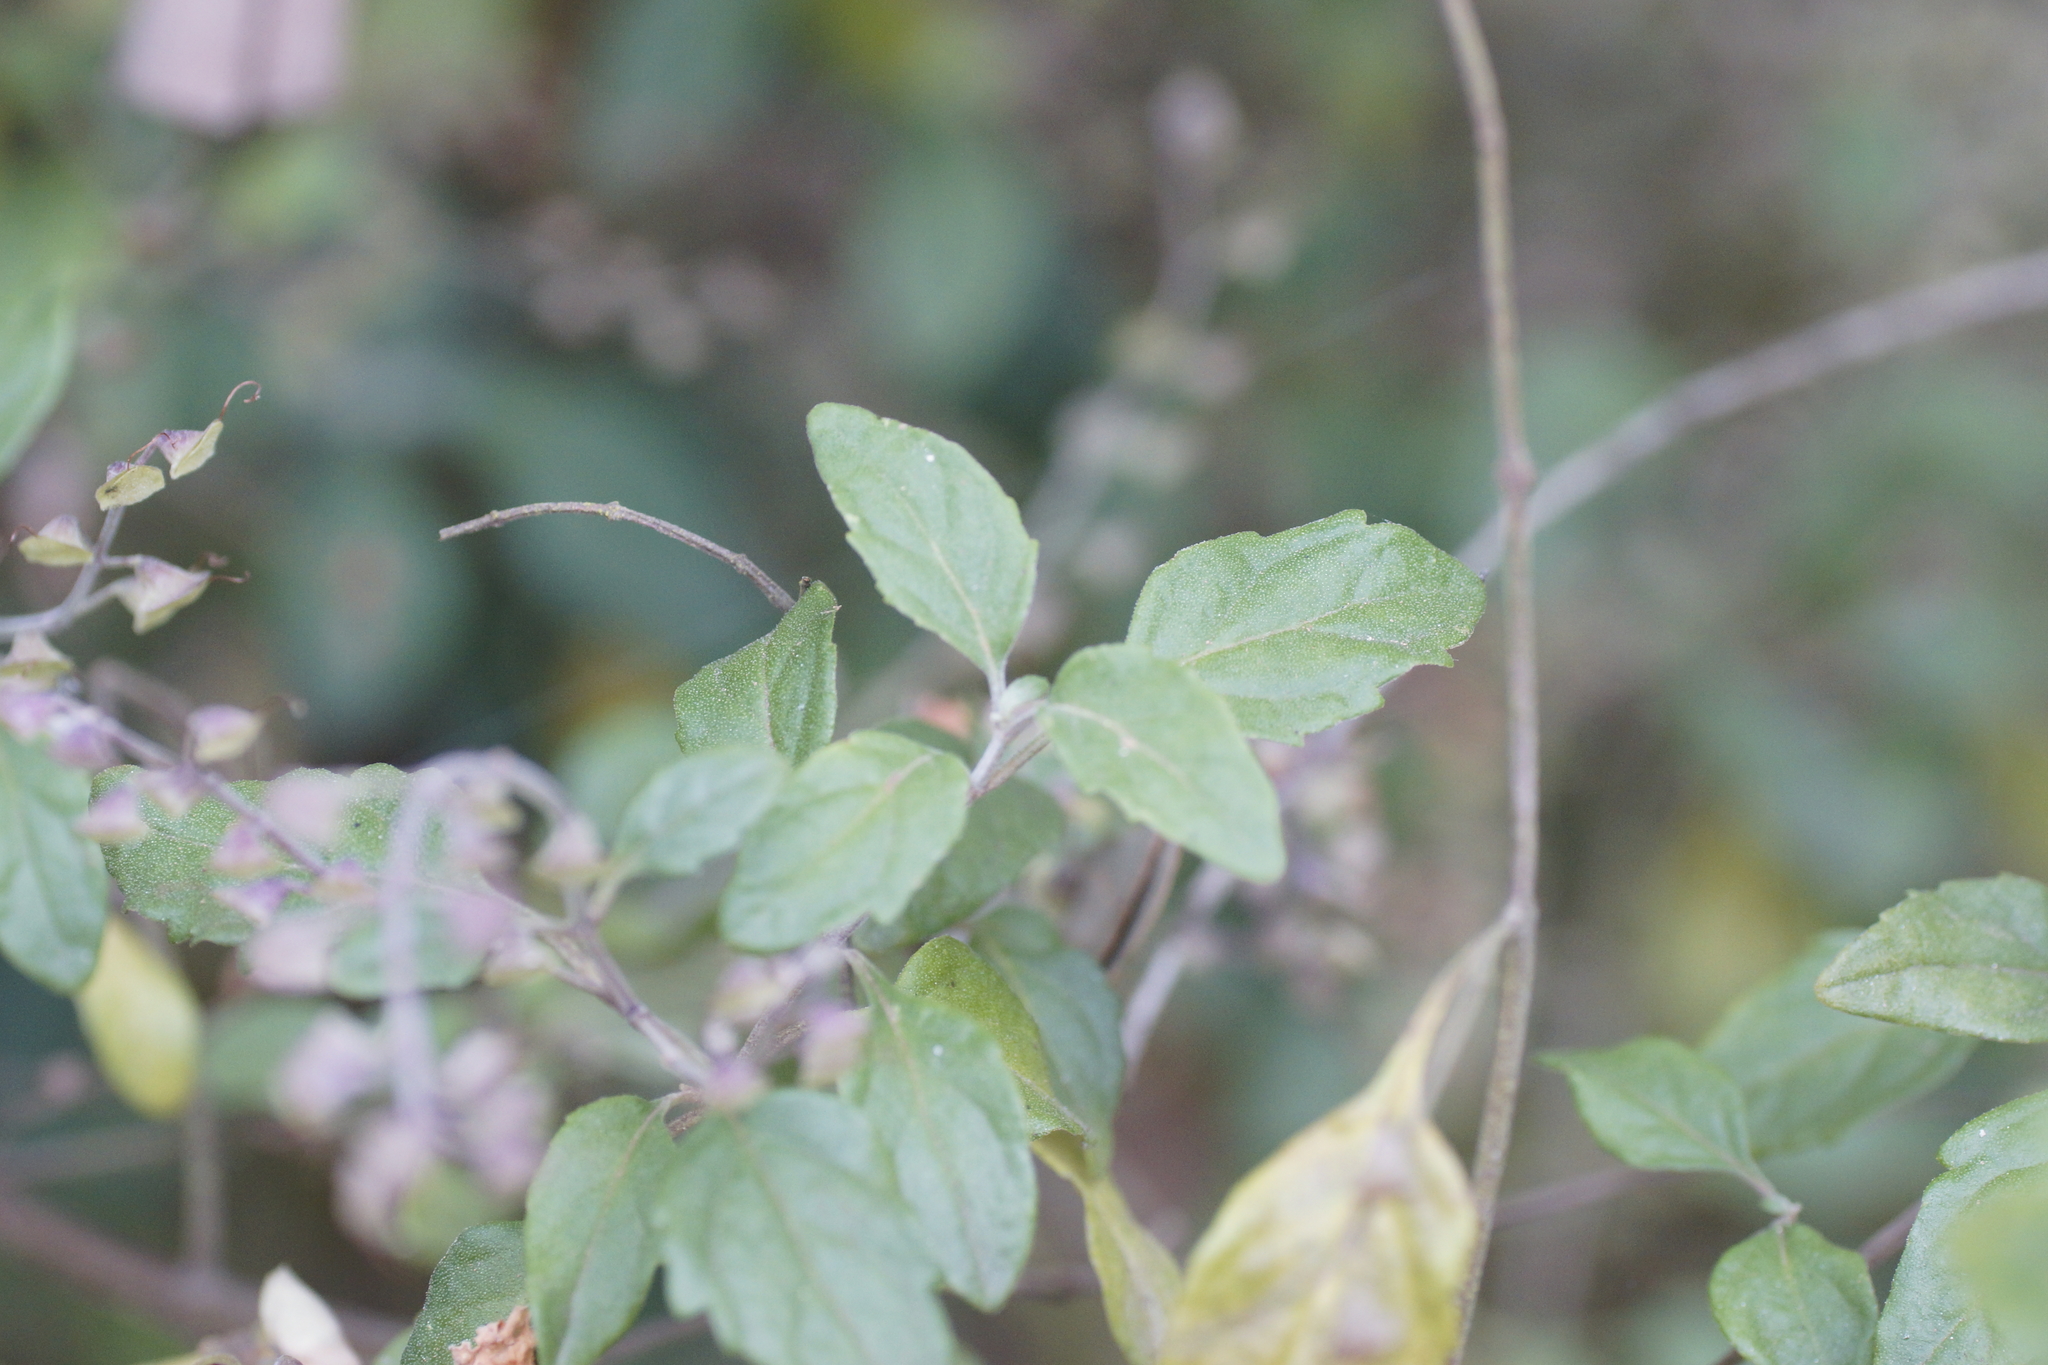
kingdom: Plantae
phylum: Tracheophyta
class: Magnoliopsida
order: Lamiales
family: Lamiaceae
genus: Prostanthera
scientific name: Prostanthera melissifolia
